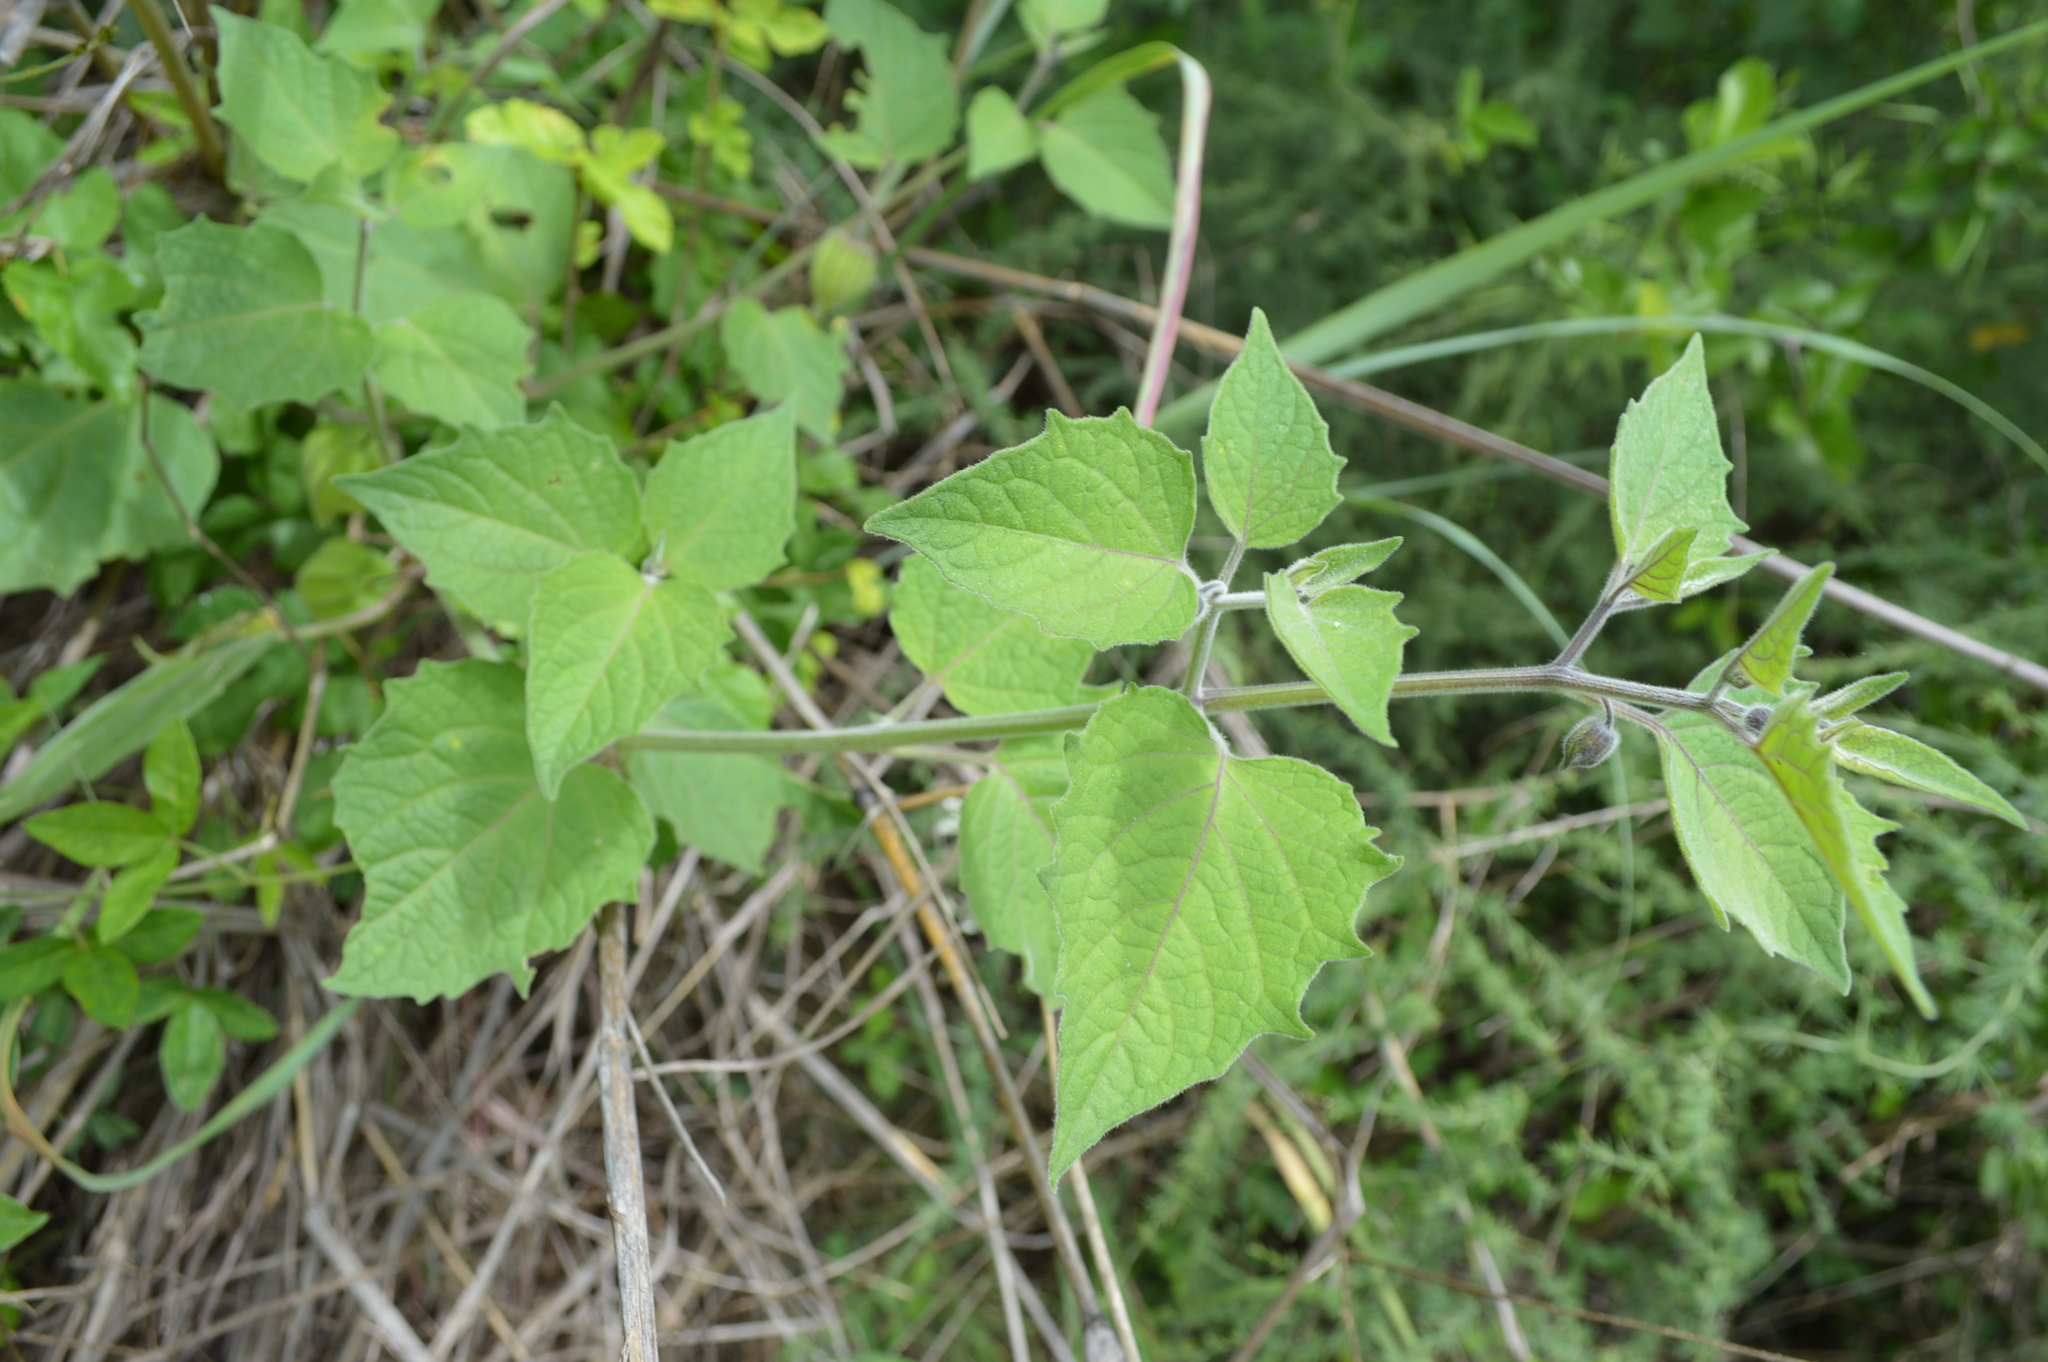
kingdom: Plantae
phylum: Tracheophyta
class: Magnoliopsida
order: Solanales
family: Solanaceae
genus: Physalis
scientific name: Physalis peruviana
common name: Cape-gooseberry
